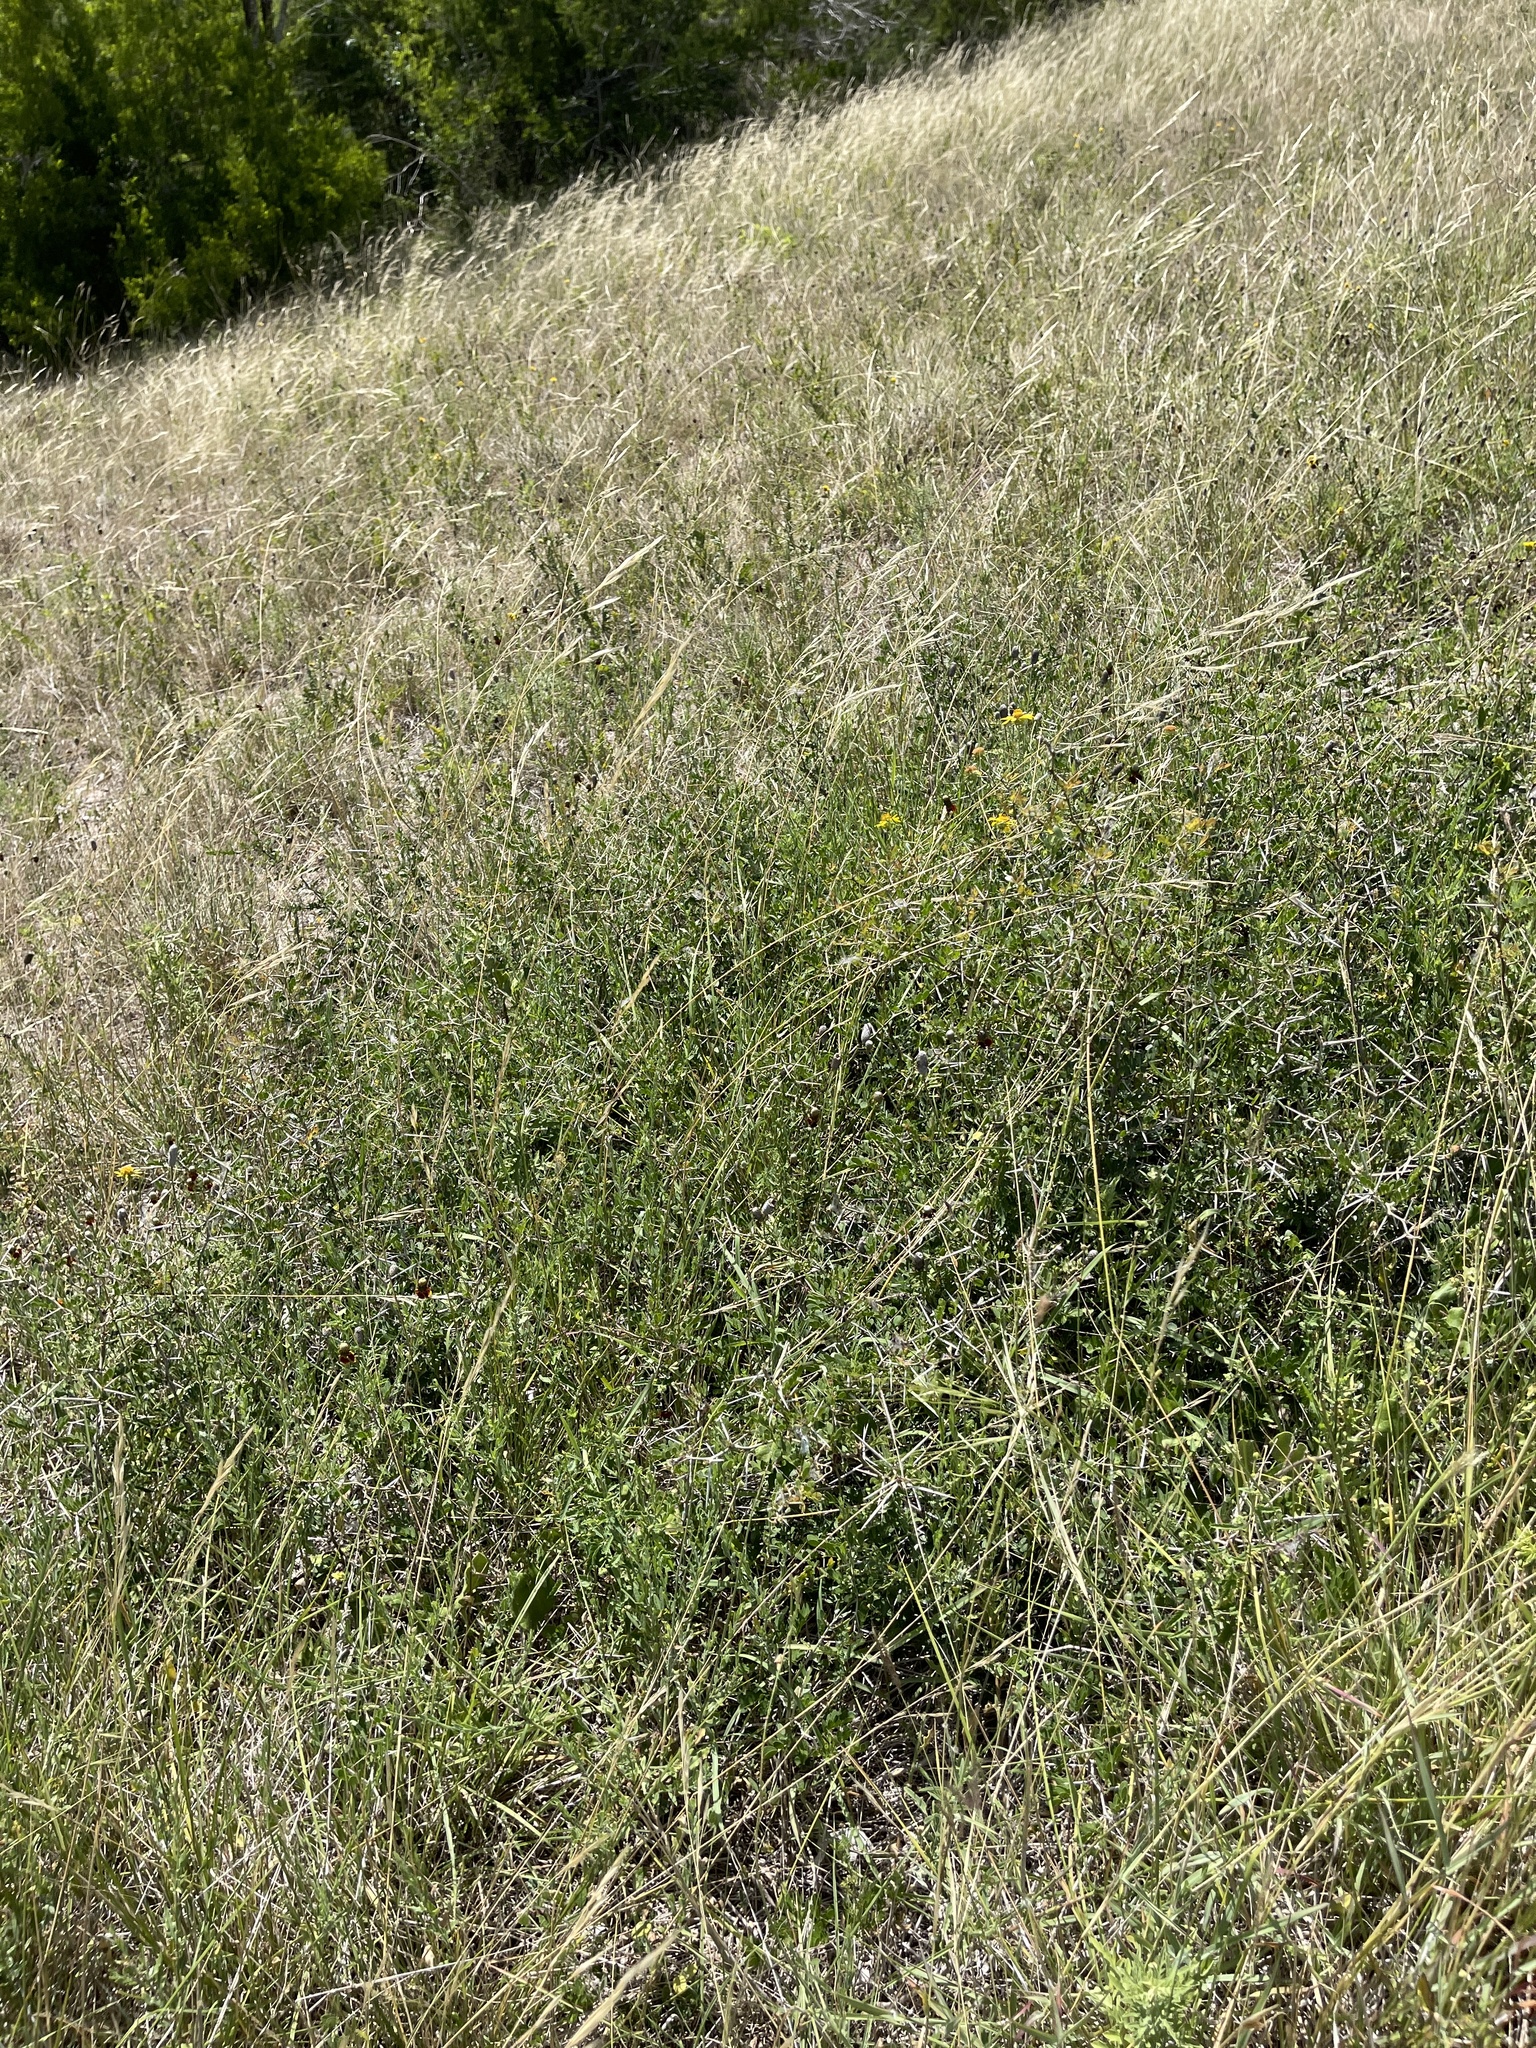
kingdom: Plantae
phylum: Tracheophyta
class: Magnoliopsida
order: Fabales
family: Fabaceae
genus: Vachellia
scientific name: Vachellia rigidula
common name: Blackbrush
